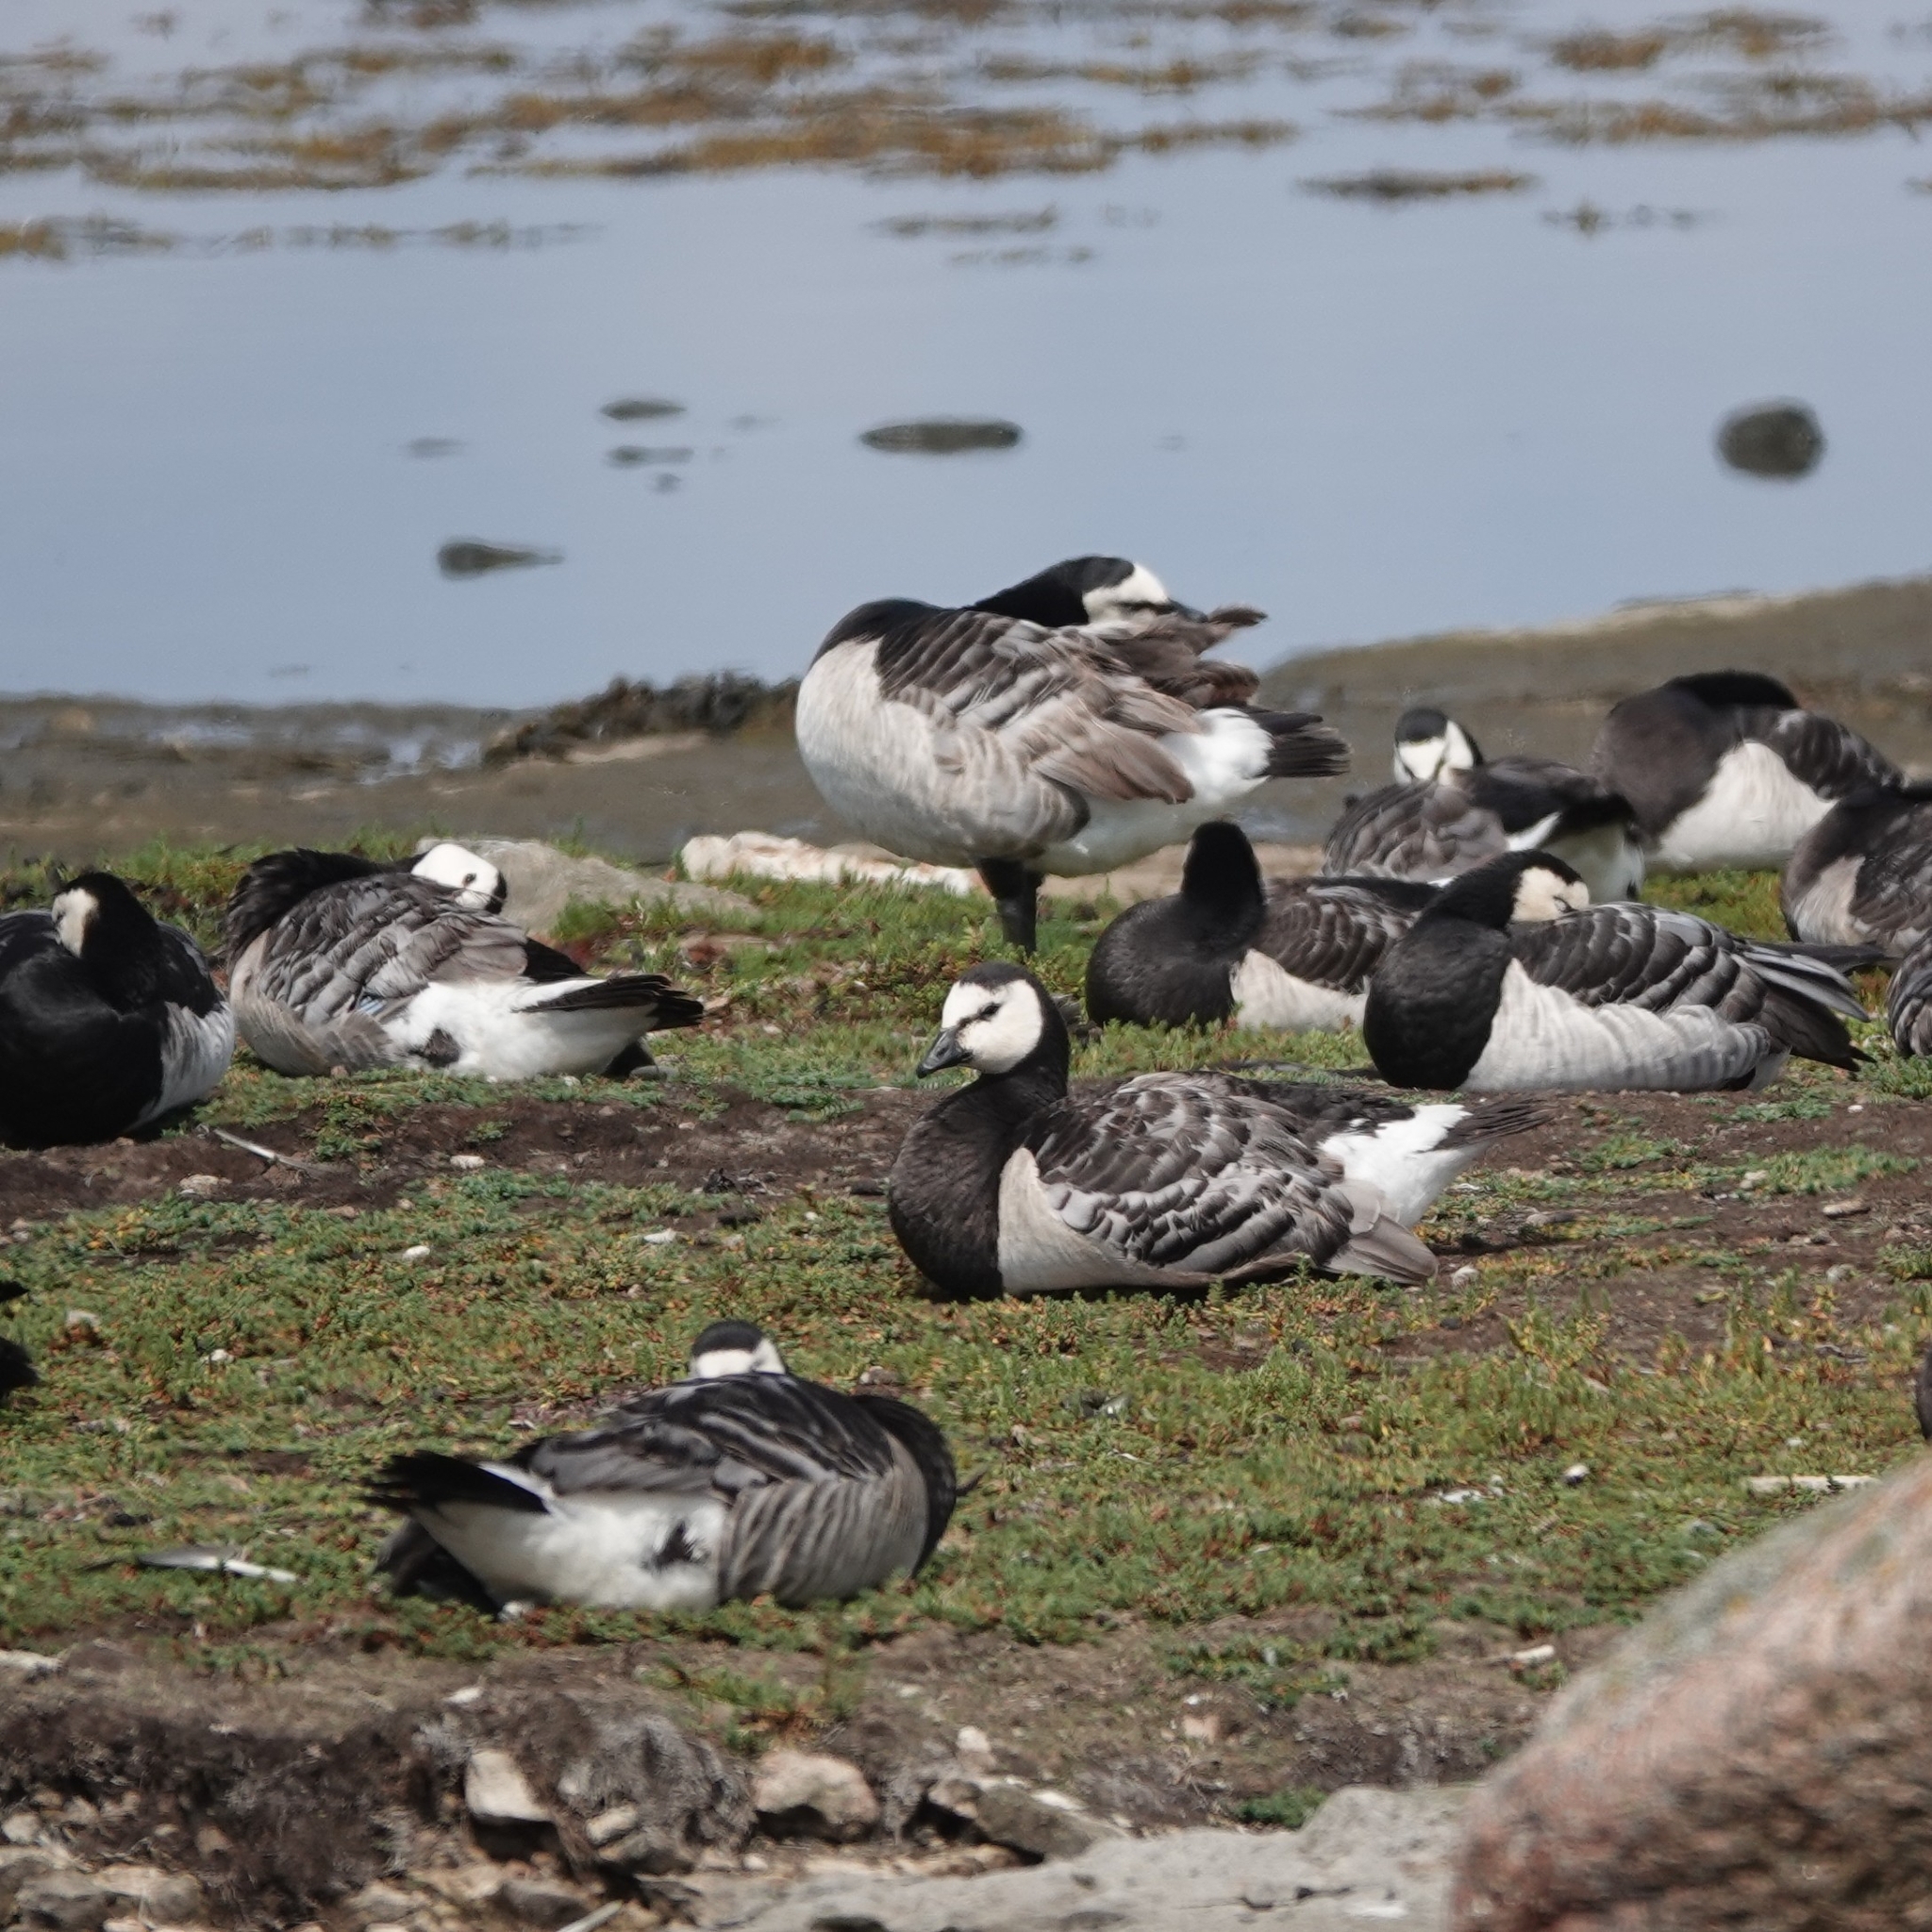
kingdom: Animalia
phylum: Chordata
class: Aves
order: Anseriformes
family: Anatidae
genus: Branta
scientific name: Branta leucopsis
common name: Barnacle goose
